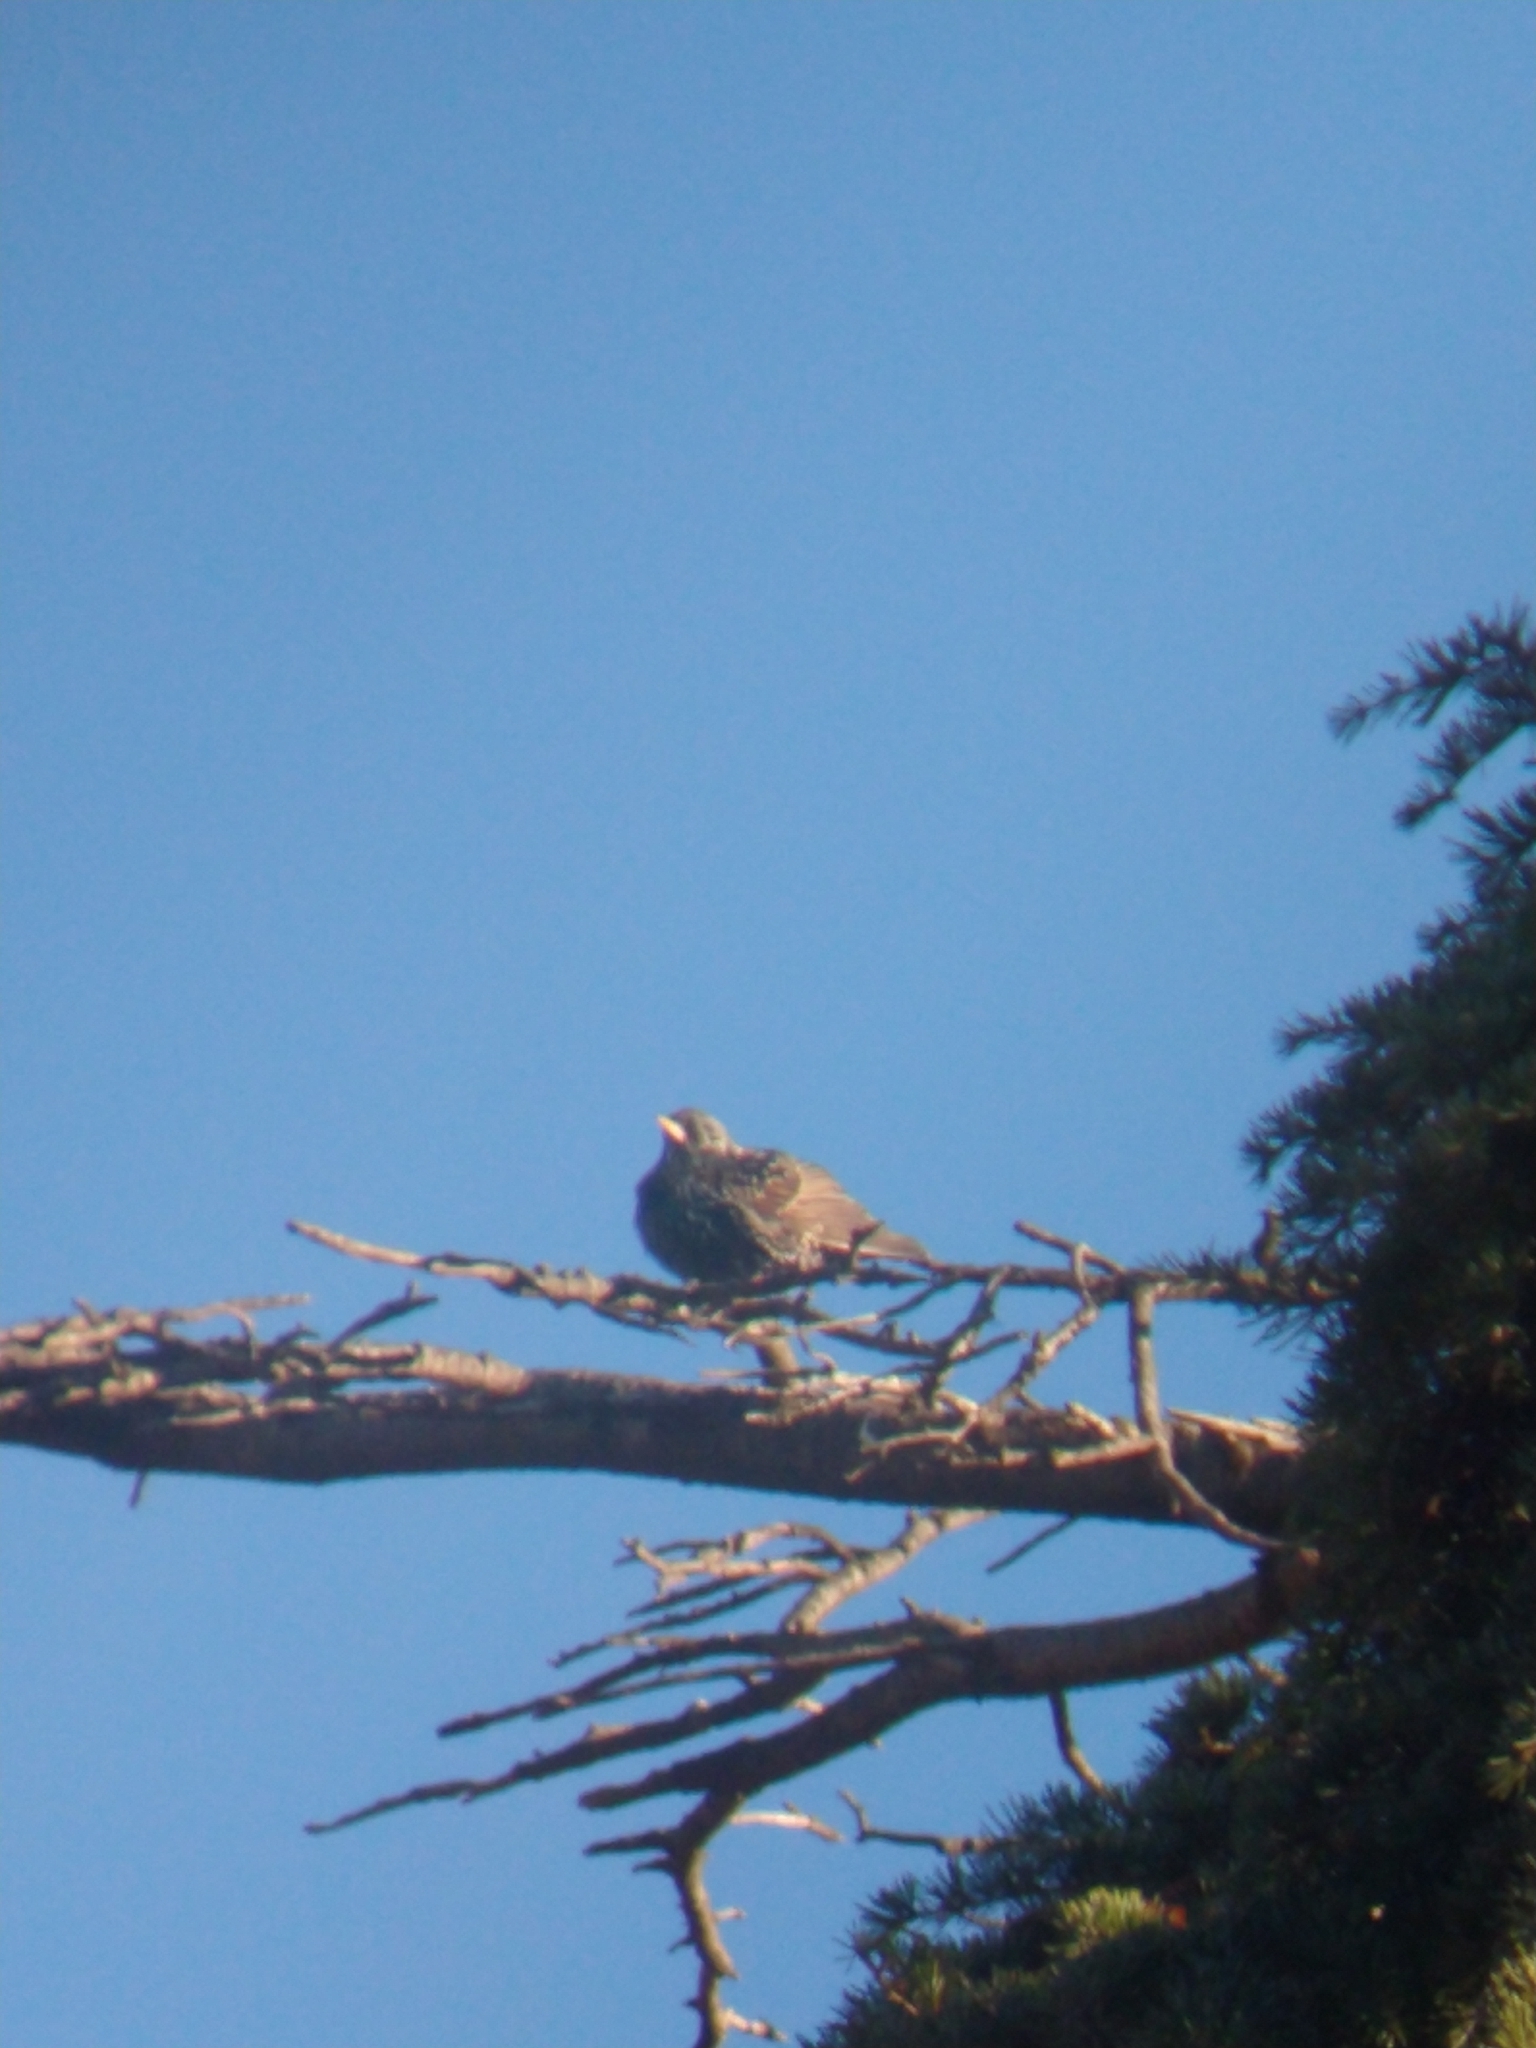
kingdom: Animalia
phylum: Chordata
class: Aves
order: Passeriformes
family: Sturnidae
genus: Sturnus
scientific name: Sturnus vulgaris
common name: Common starling
